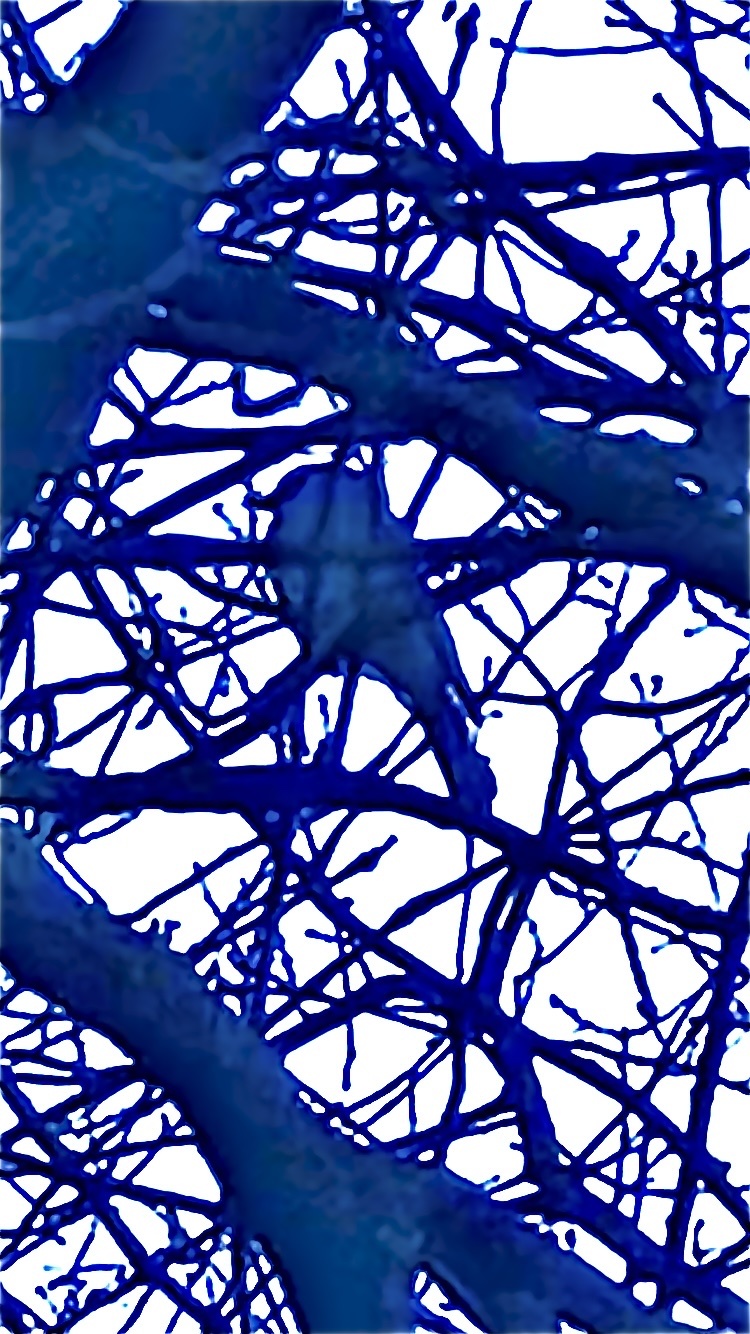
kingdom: Animalia
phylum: Chordata
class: Aves
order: Passeriformes
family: Corvidae
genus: Garrulus
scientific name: Garrulus glandarius
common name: Eurasian jay
